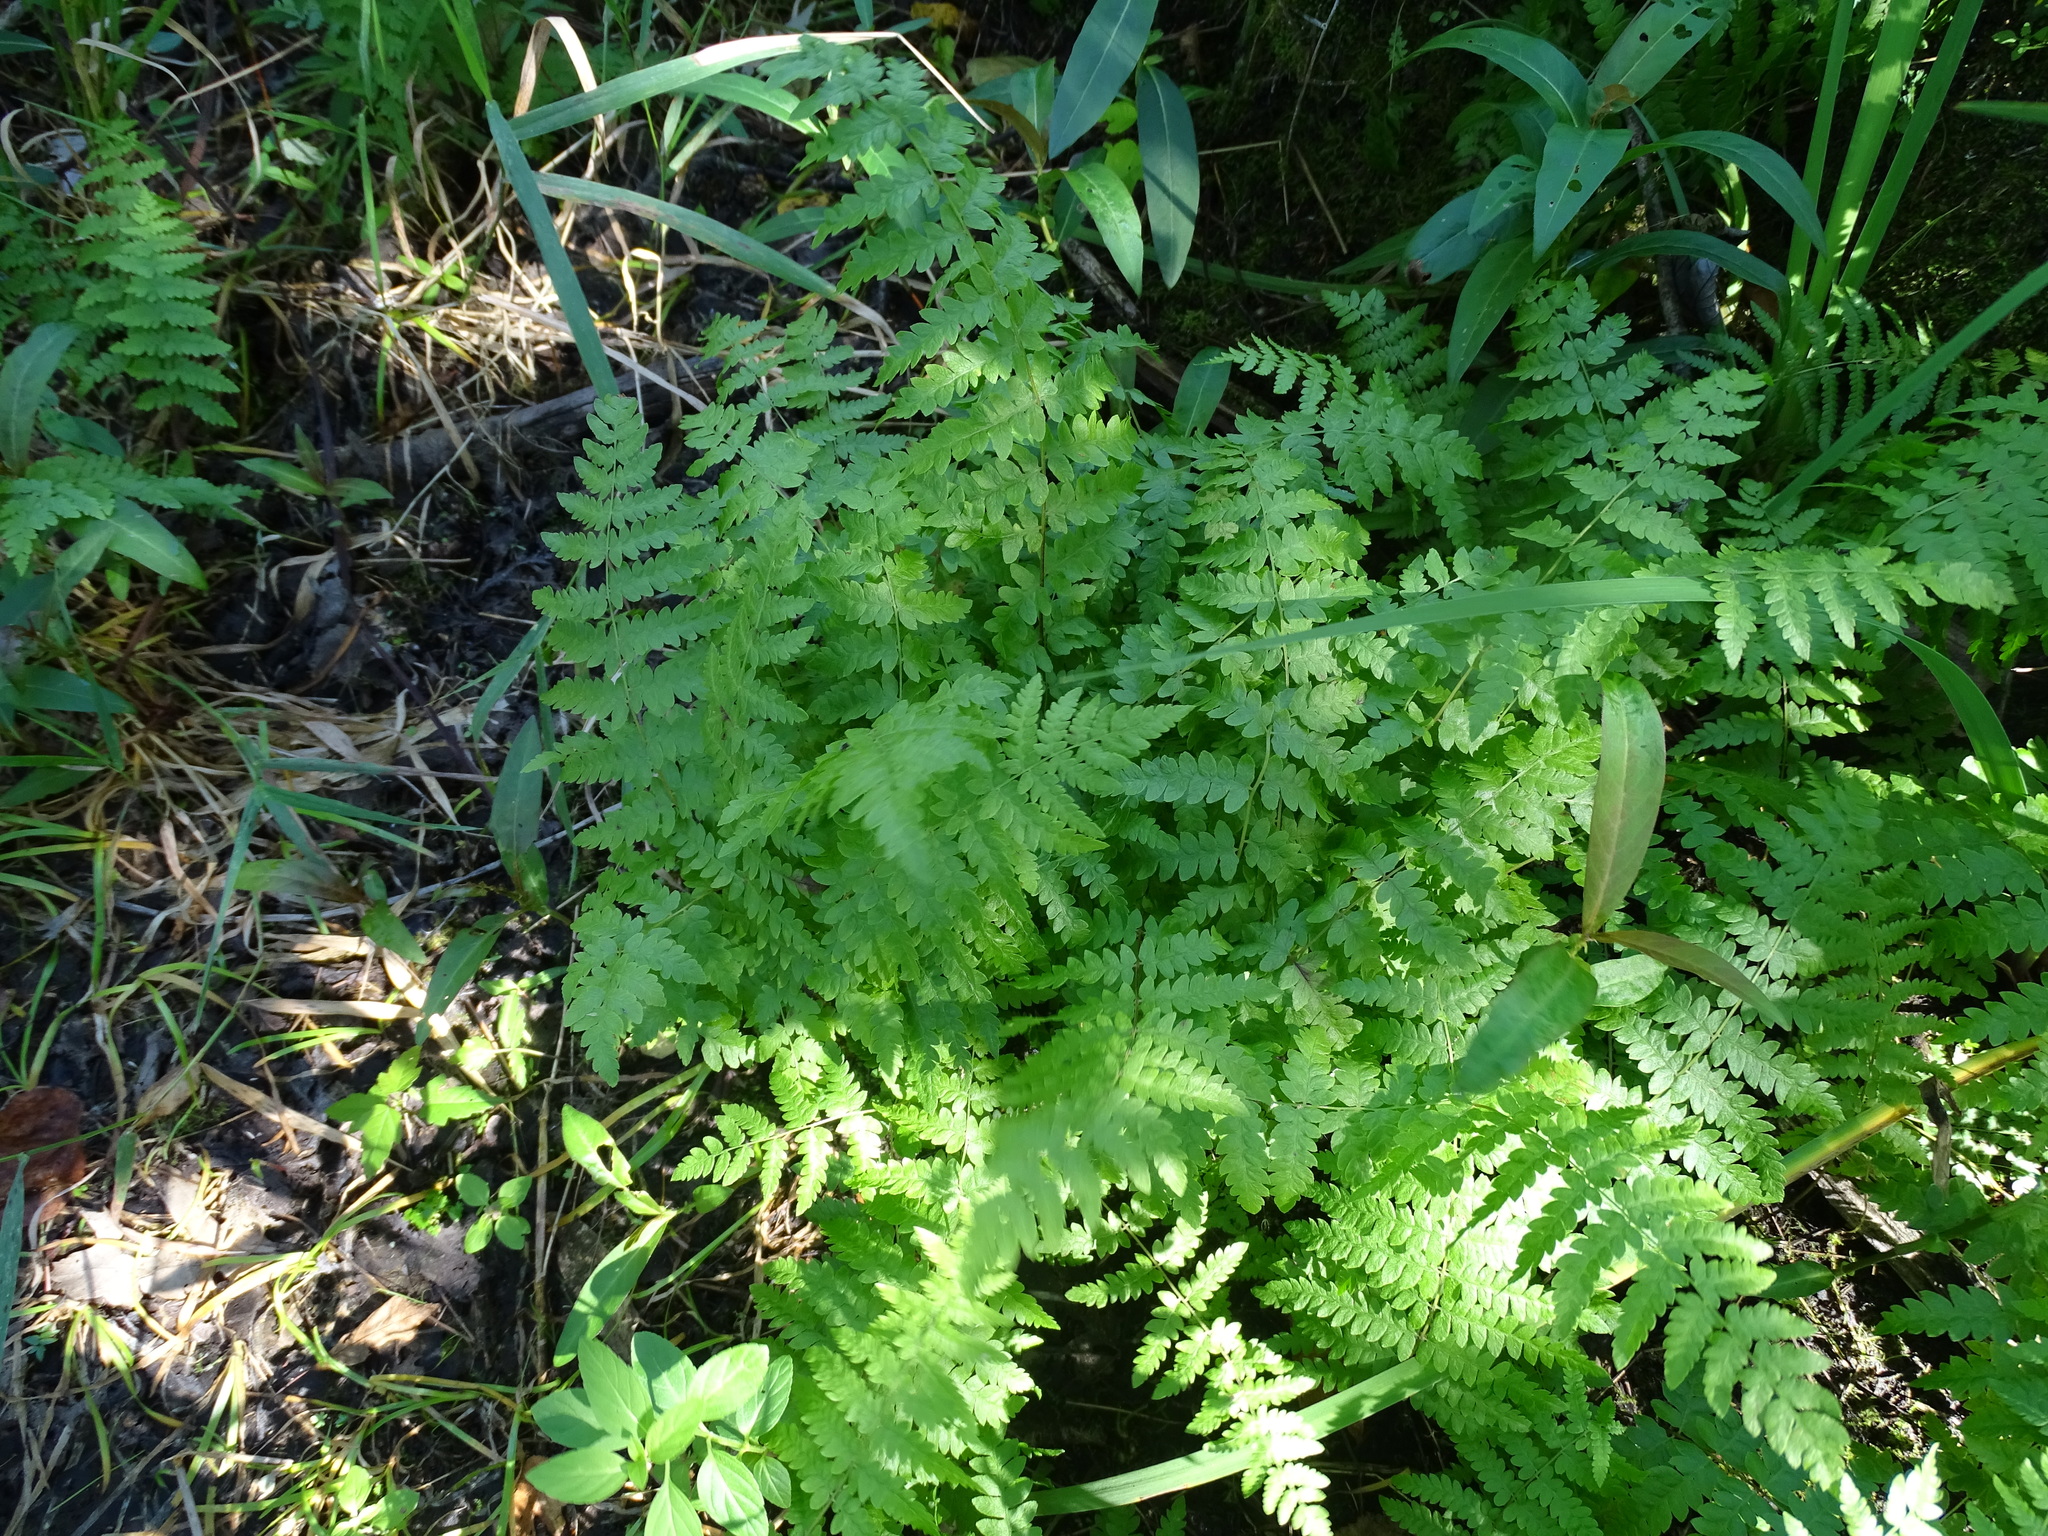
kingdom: Plantae
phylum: Tracheophyta
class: Polypodiopsida
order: Polypodiales
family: Thelypteridaceae
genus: Thelypteris
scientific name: Thelypteris palustris
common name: Marsh fern
